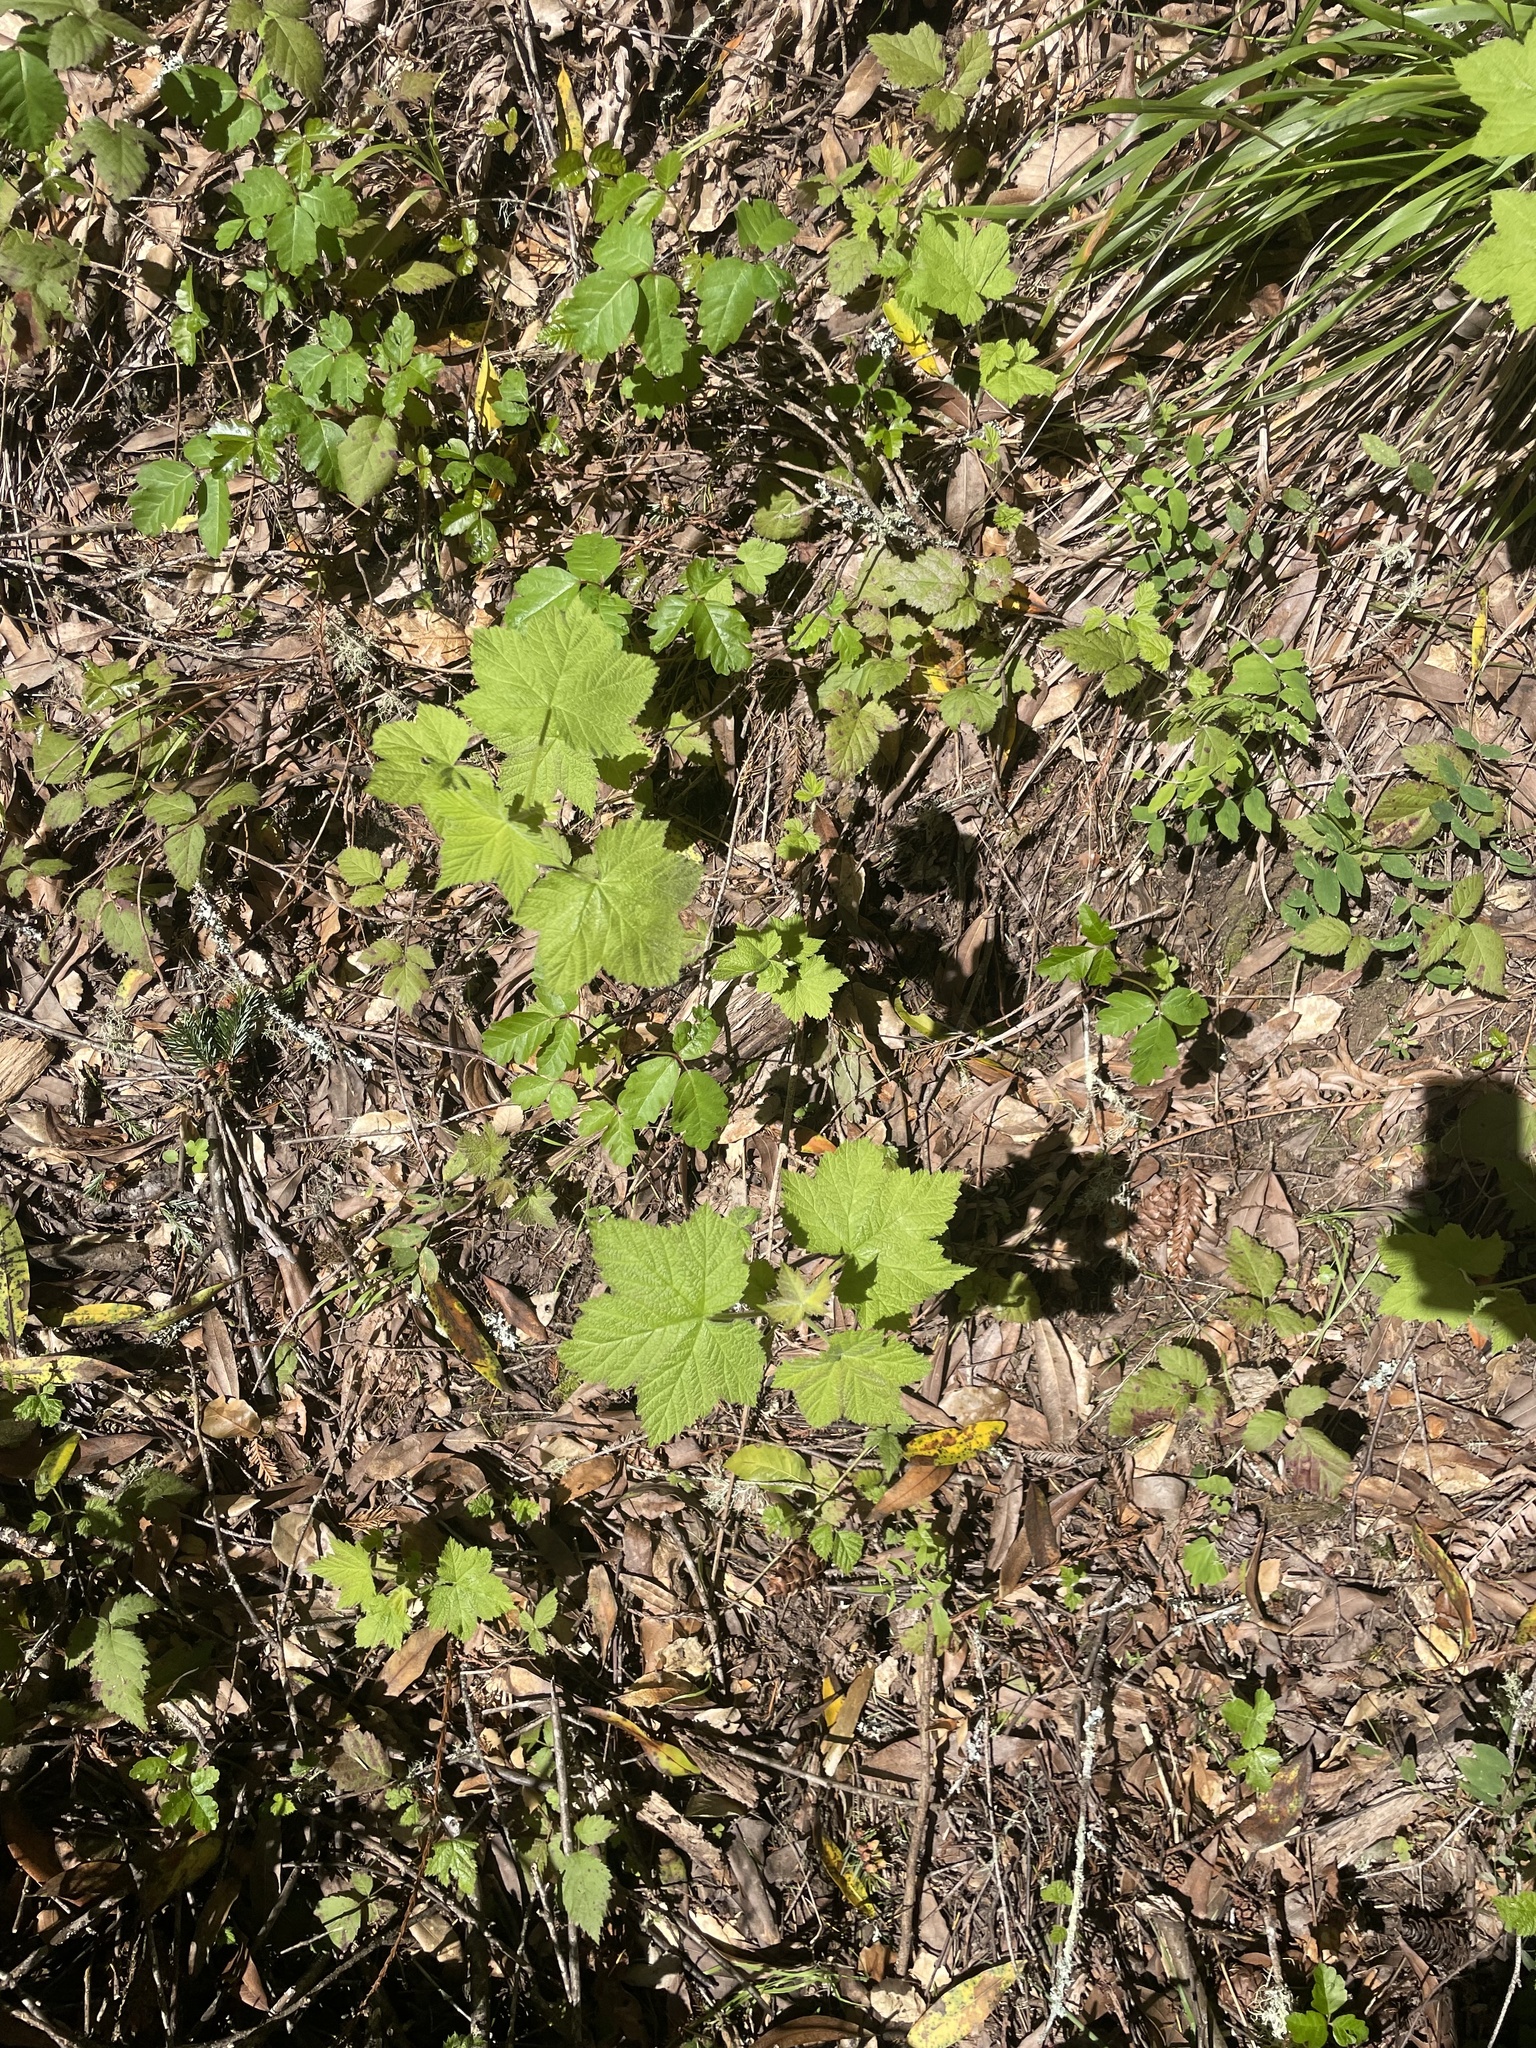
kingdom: Plantae
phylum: Tracheophyta
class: Magnoliopsida
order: Rosales
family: Rosaceae
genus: Rubus
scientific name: Rubus parviflorus
